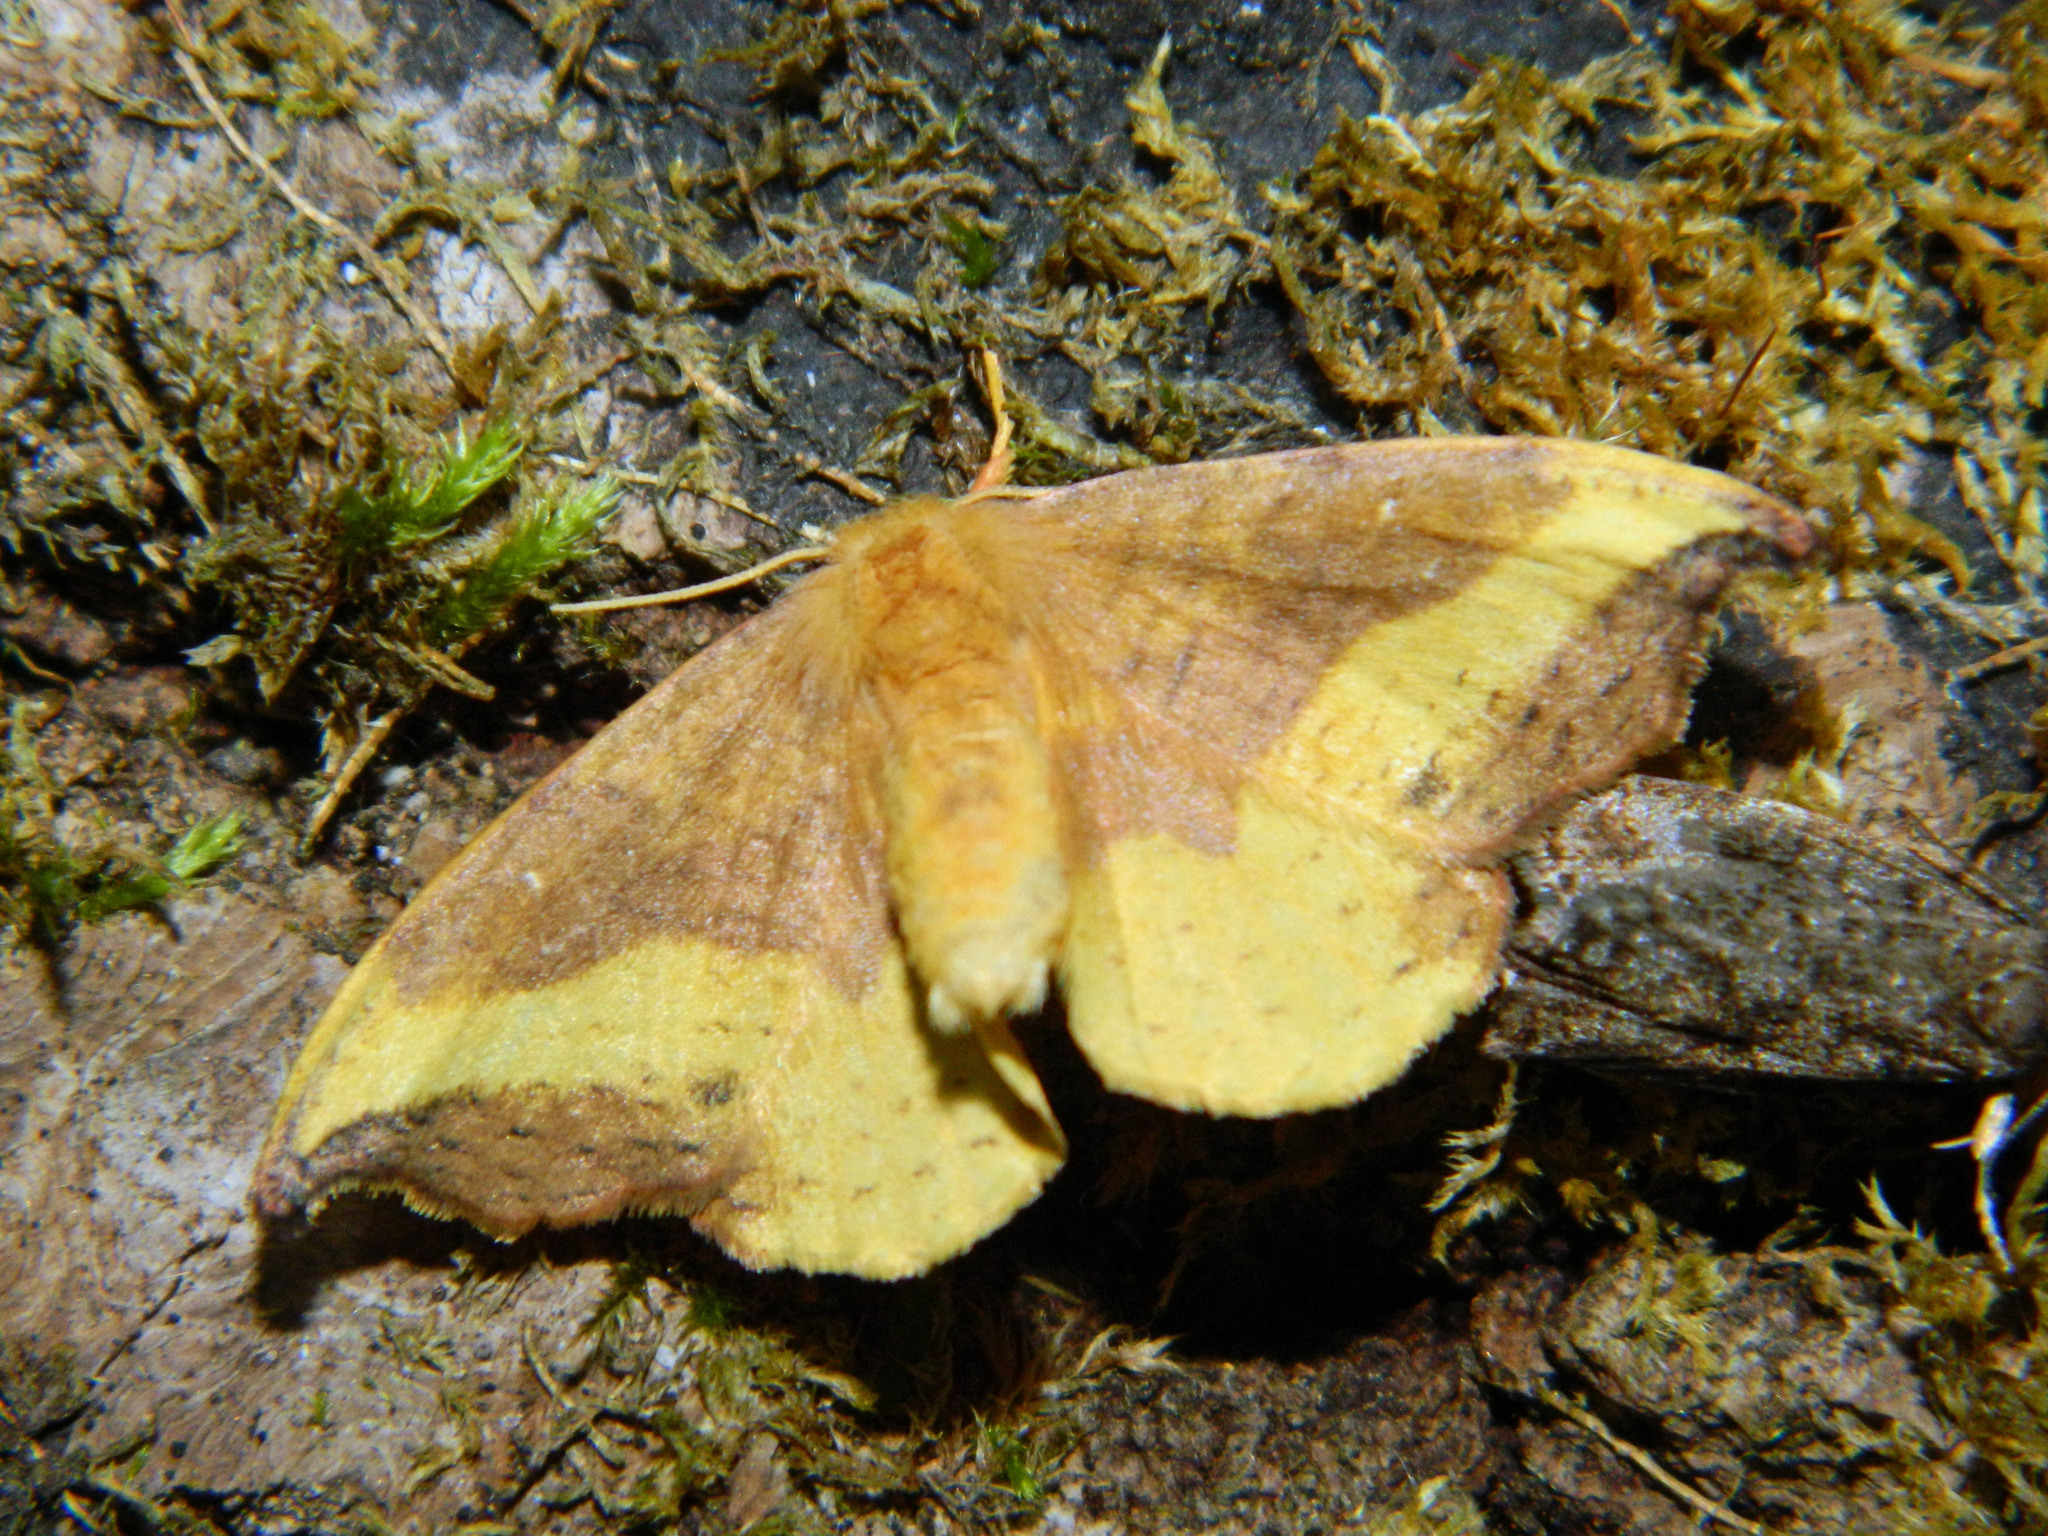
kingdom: Animalia
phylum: Arthropoda
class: Insecta
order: Lepidoptera
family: Drepanidae
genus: Oreta
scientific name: Oreta rosea
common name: Rose hooktip
